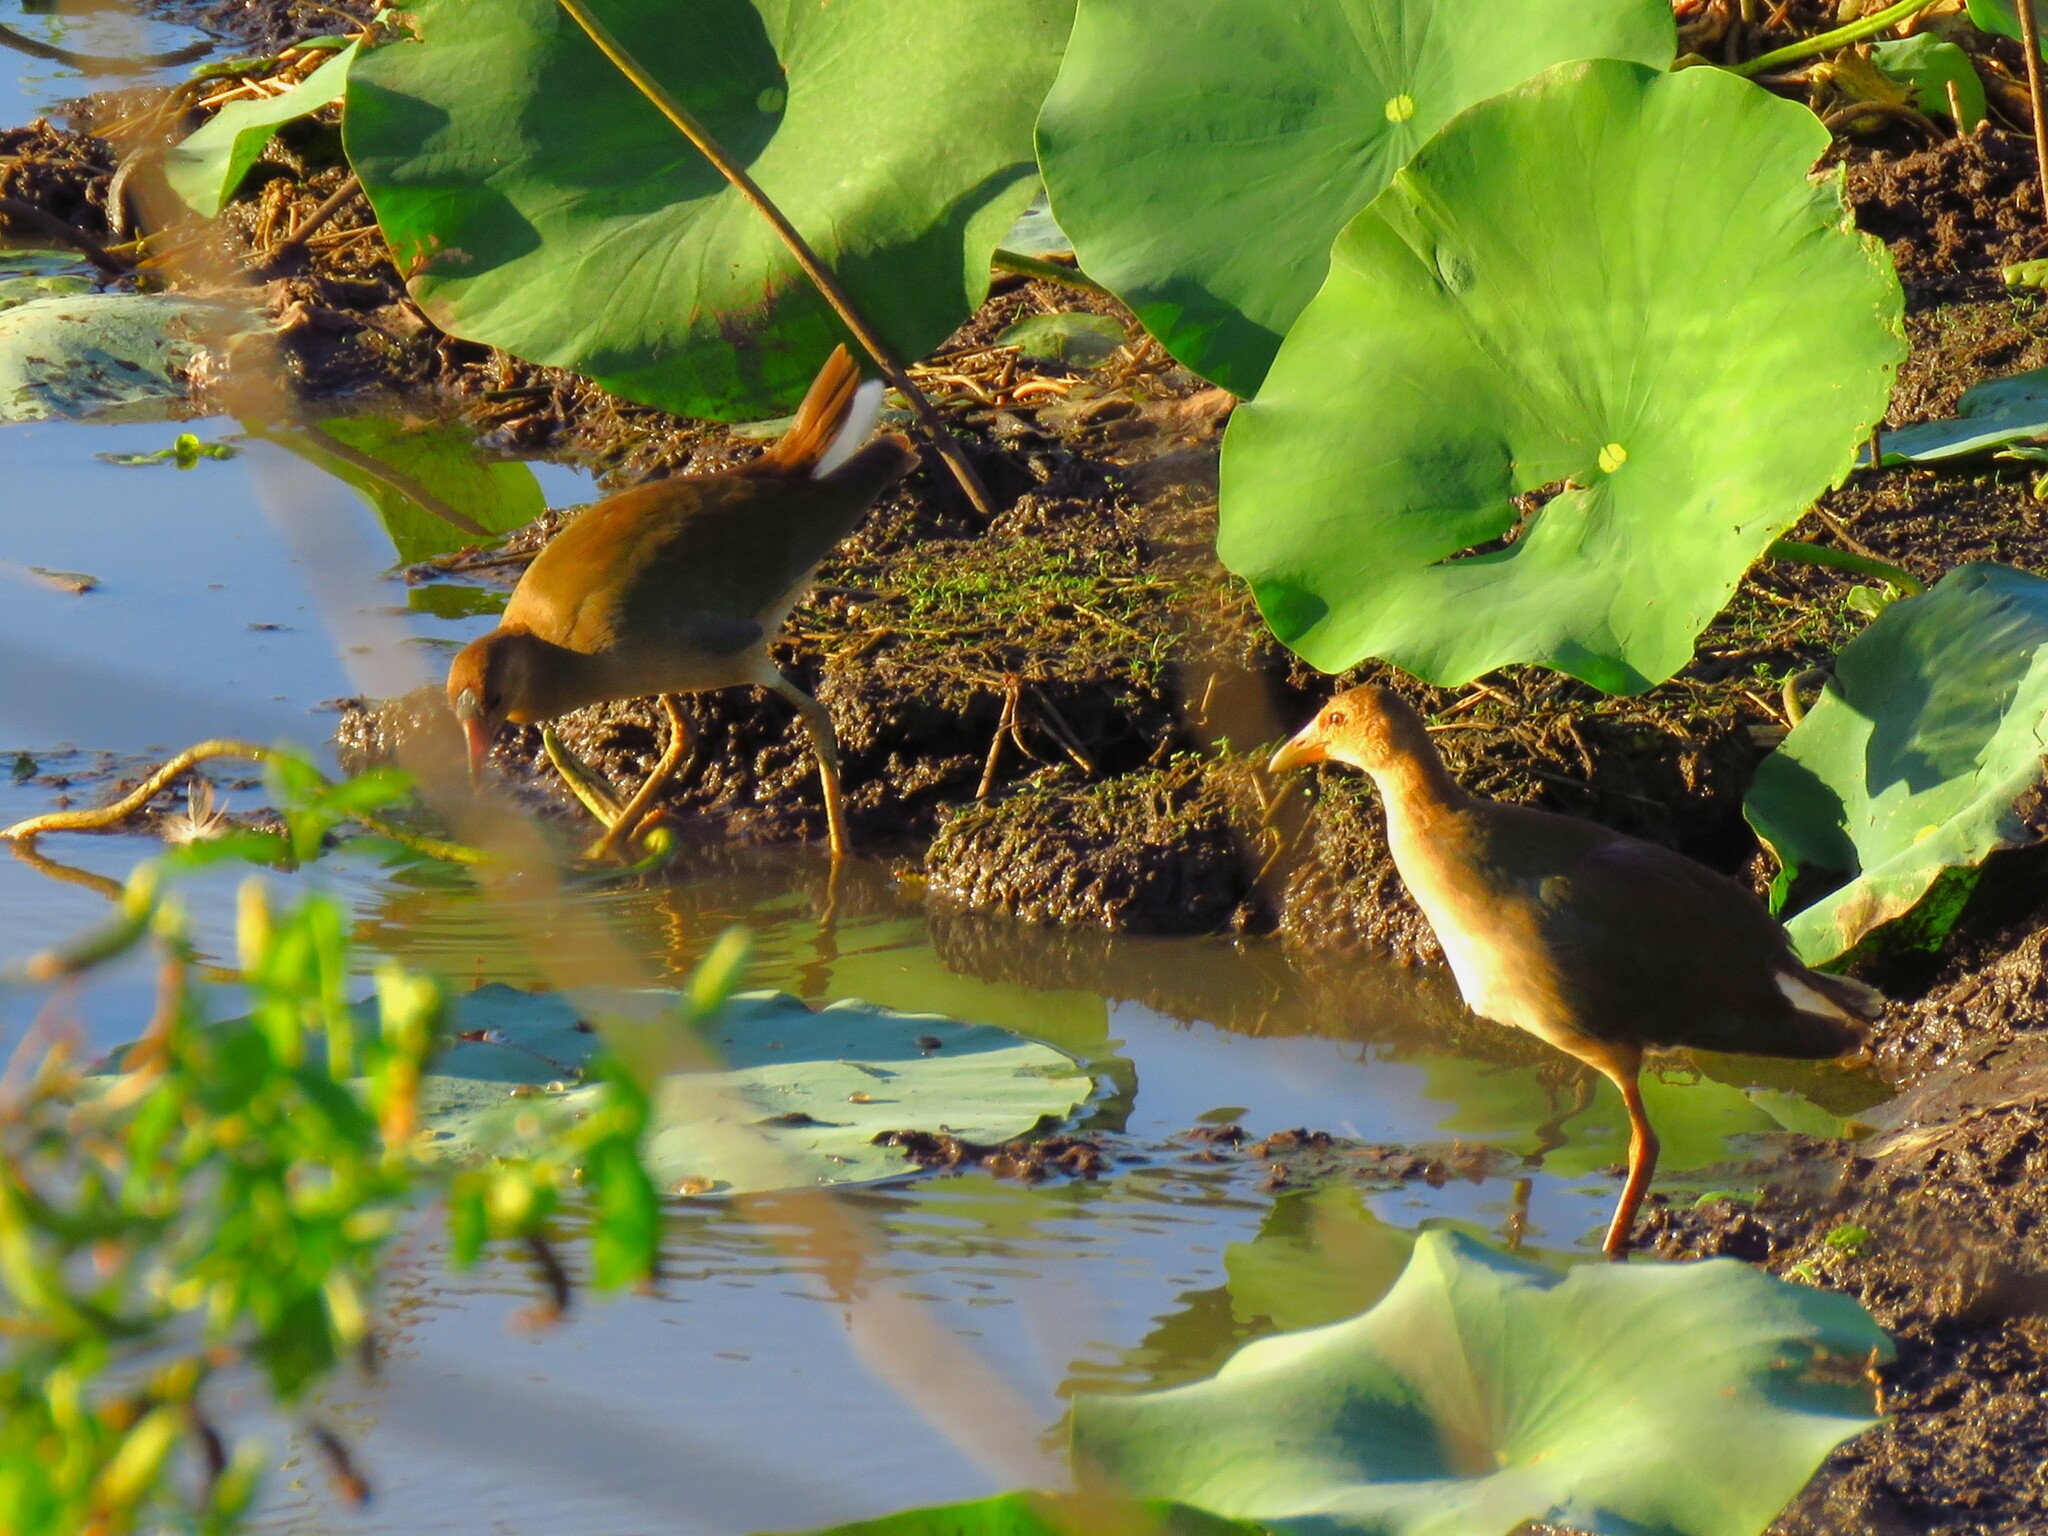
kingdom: Animalia
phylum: Chordata
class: Aves
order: Gruiformes
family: Rallidae
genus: Porphyrio
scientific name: Porphyrio martinica
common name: Purple gallinule
